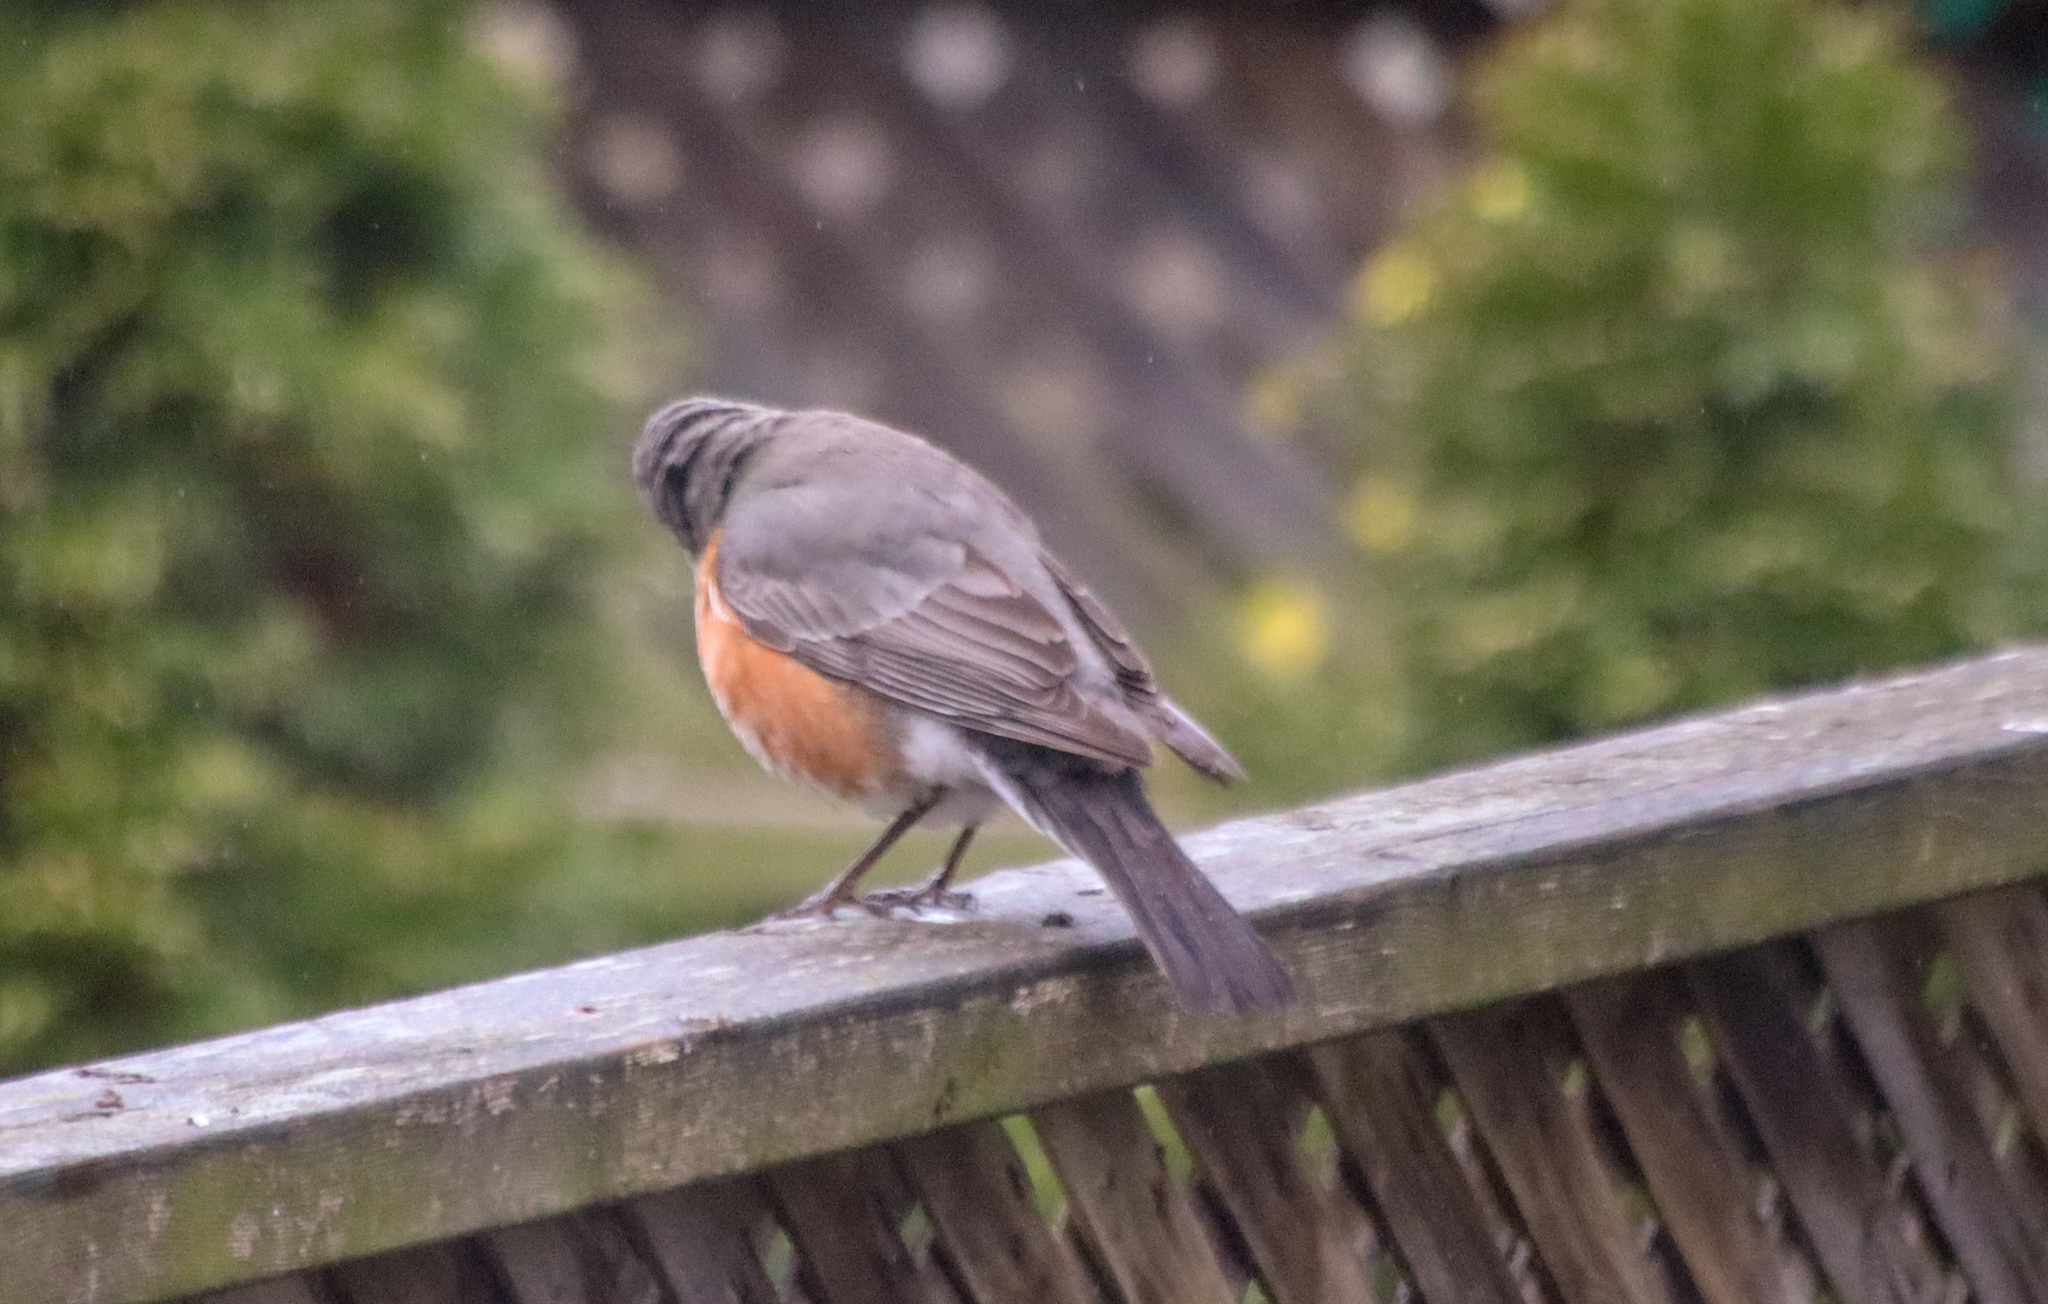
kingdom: Animalia
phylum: Chordata
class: Aves
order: Passeriformes
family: Turdidae
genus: Turdus
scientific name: Turdus migratorius
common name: American robin
